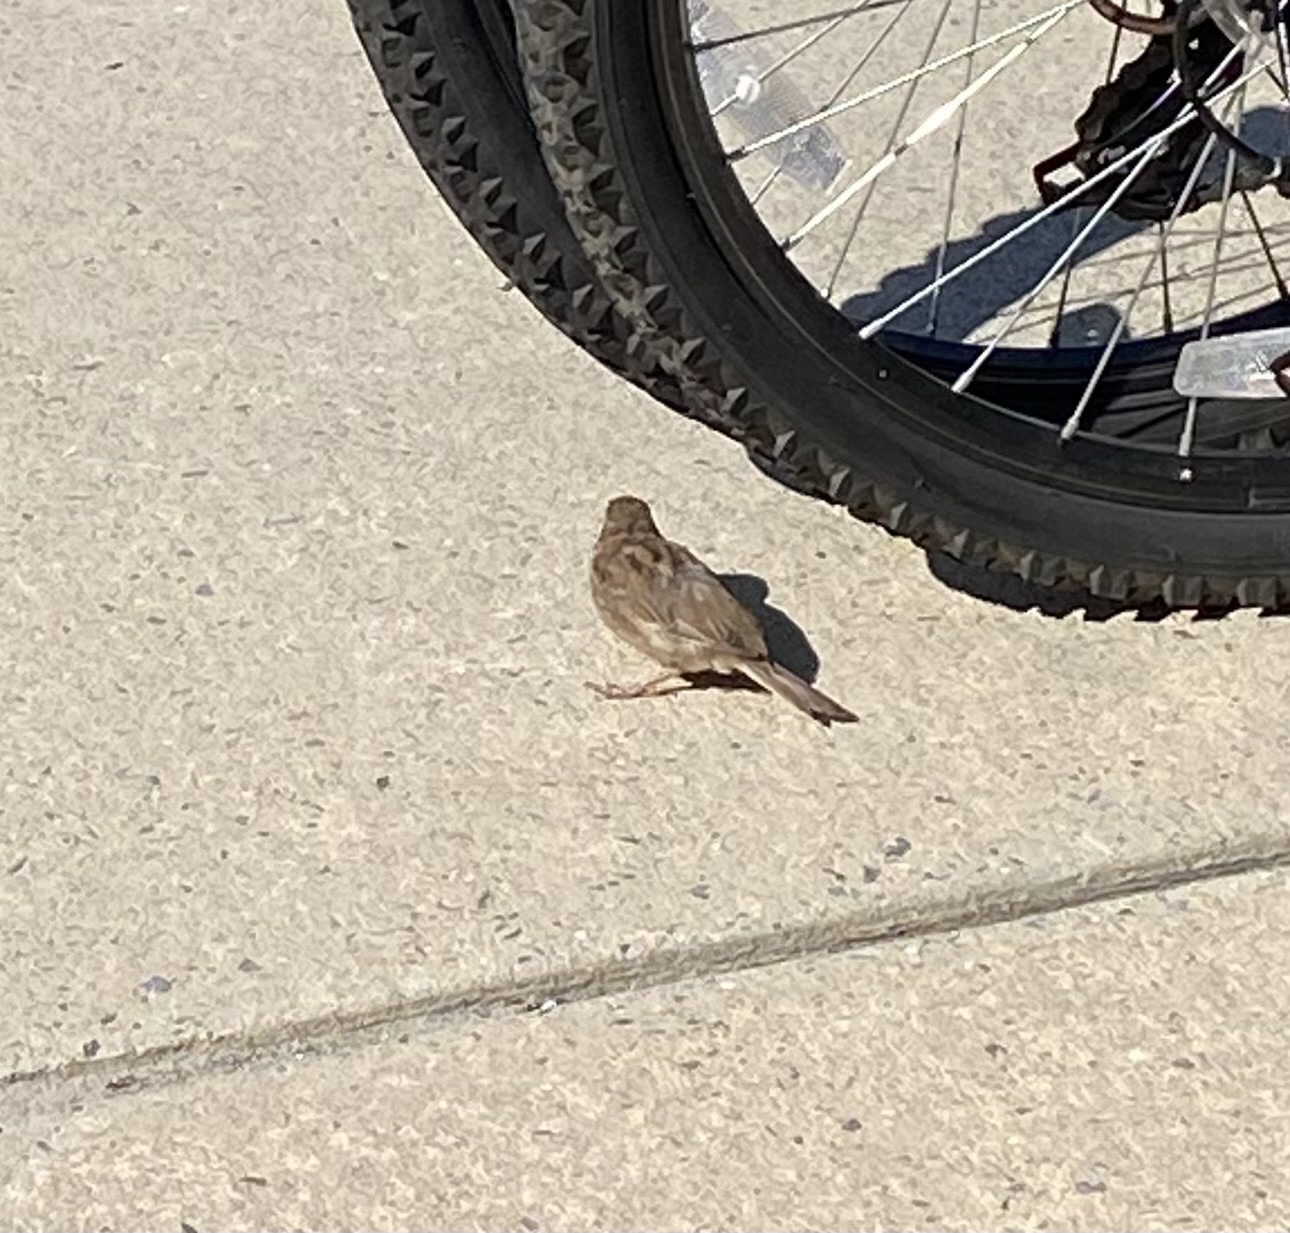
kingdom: Animalia
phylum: Chordata
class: Aves
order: Passeriformes
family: Passeridae
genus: Passer
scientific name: Passer domesticus
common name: House sparrow
